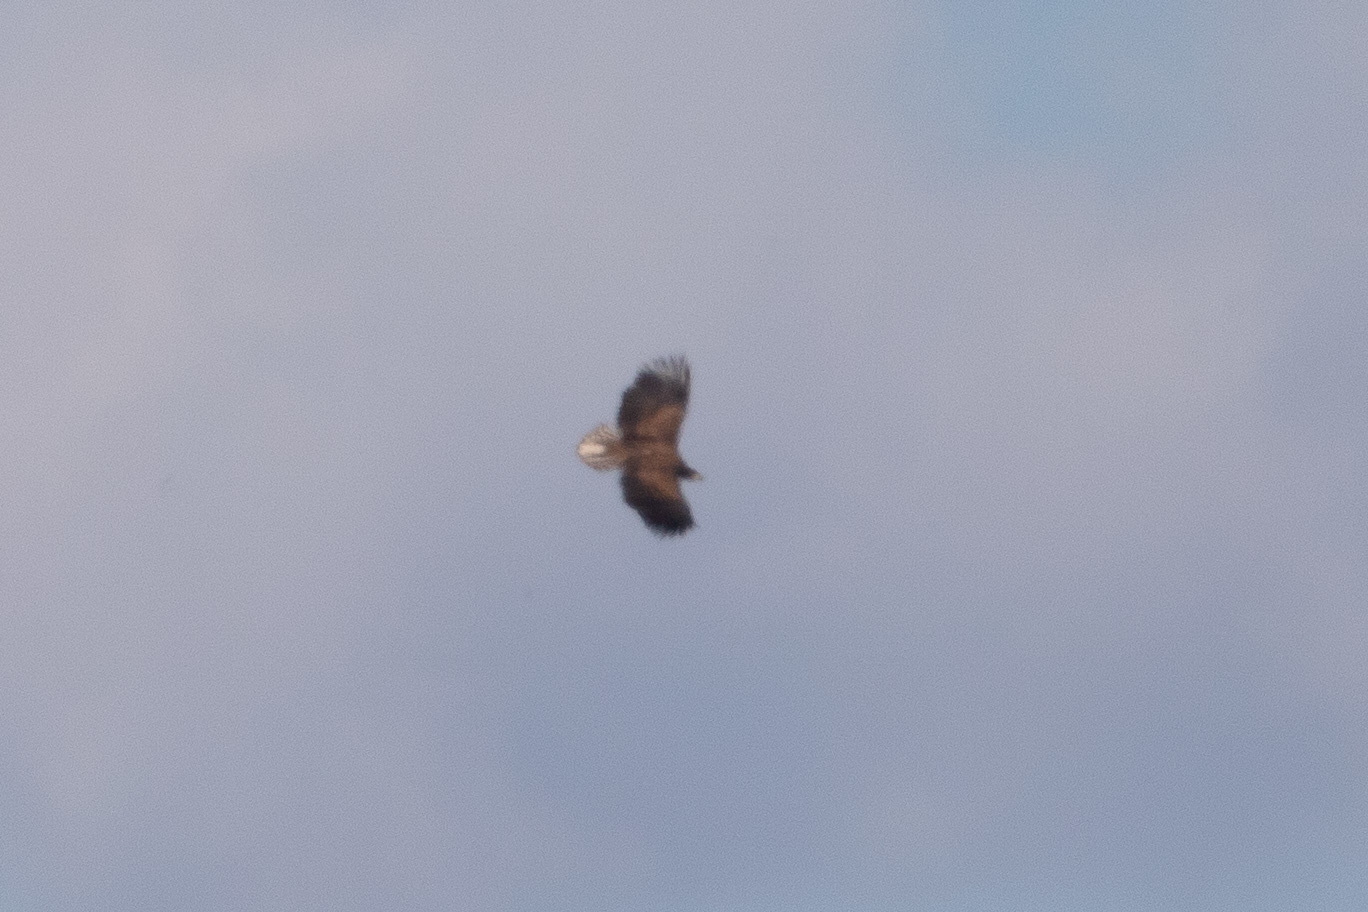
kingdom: Animalia
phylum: Chordata
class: Aves
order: Accipitriformes
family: Accipitridae
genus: Haliaeetus
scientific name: Haliaeetus albicilla
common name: White-tailed eagle
